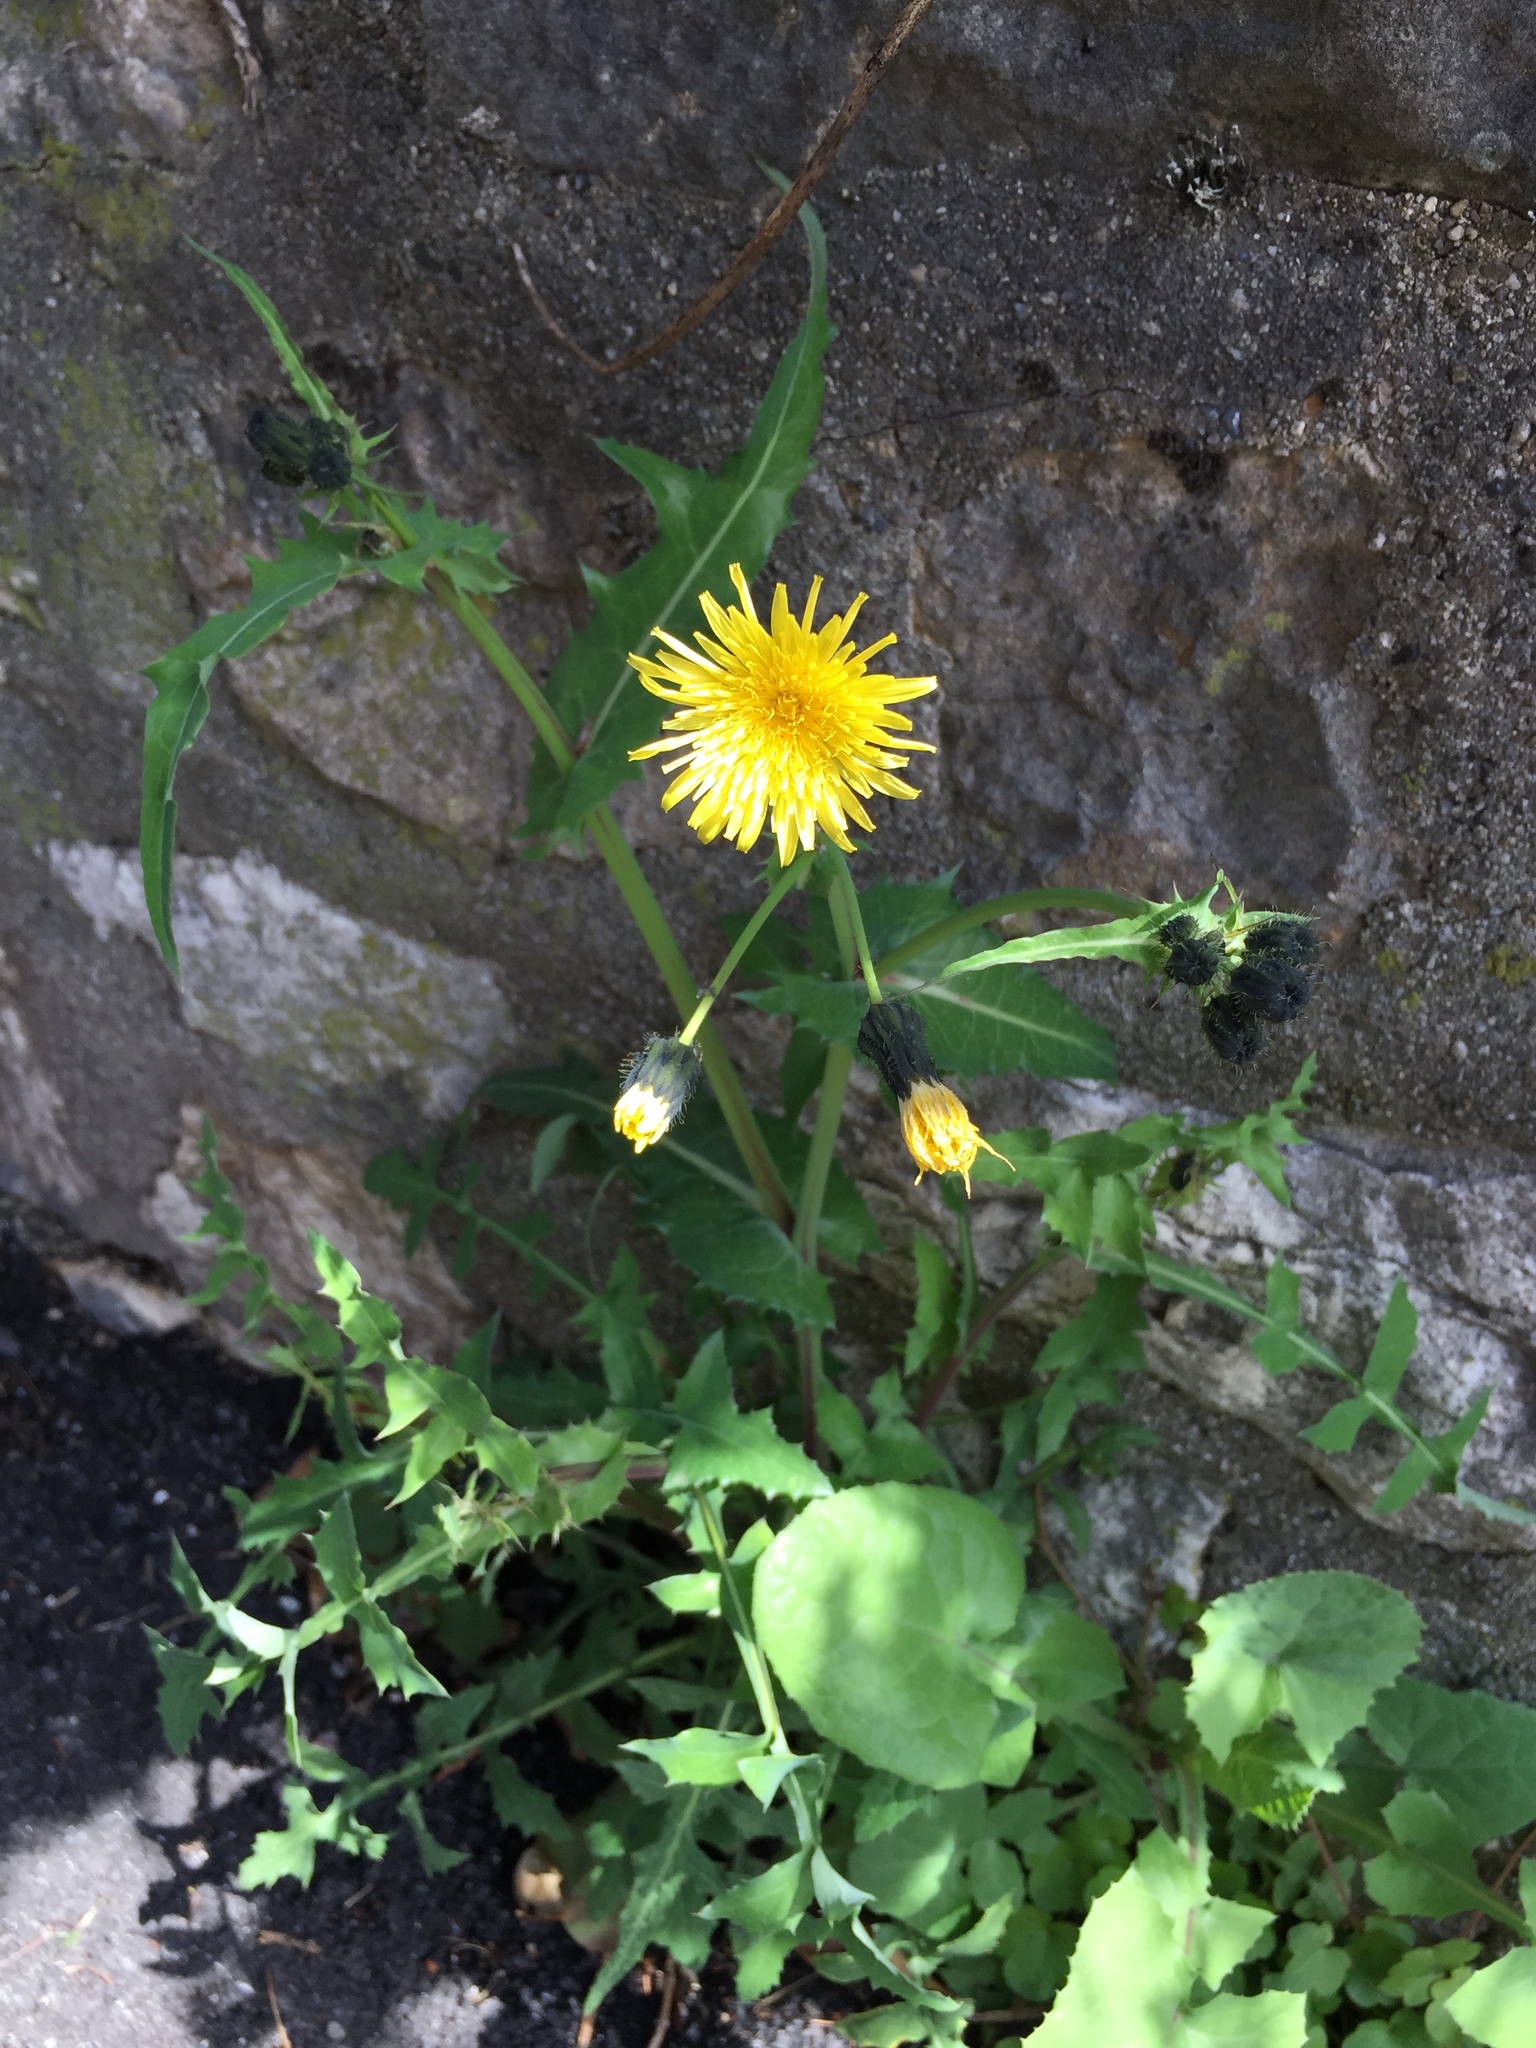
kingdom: Plantae
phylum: Tracheophyta
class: Magnoliopsida
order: Asterales
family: Asteraceae
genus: Sonchus
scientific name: Sonchus oleraceus
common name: Common sowthistle
